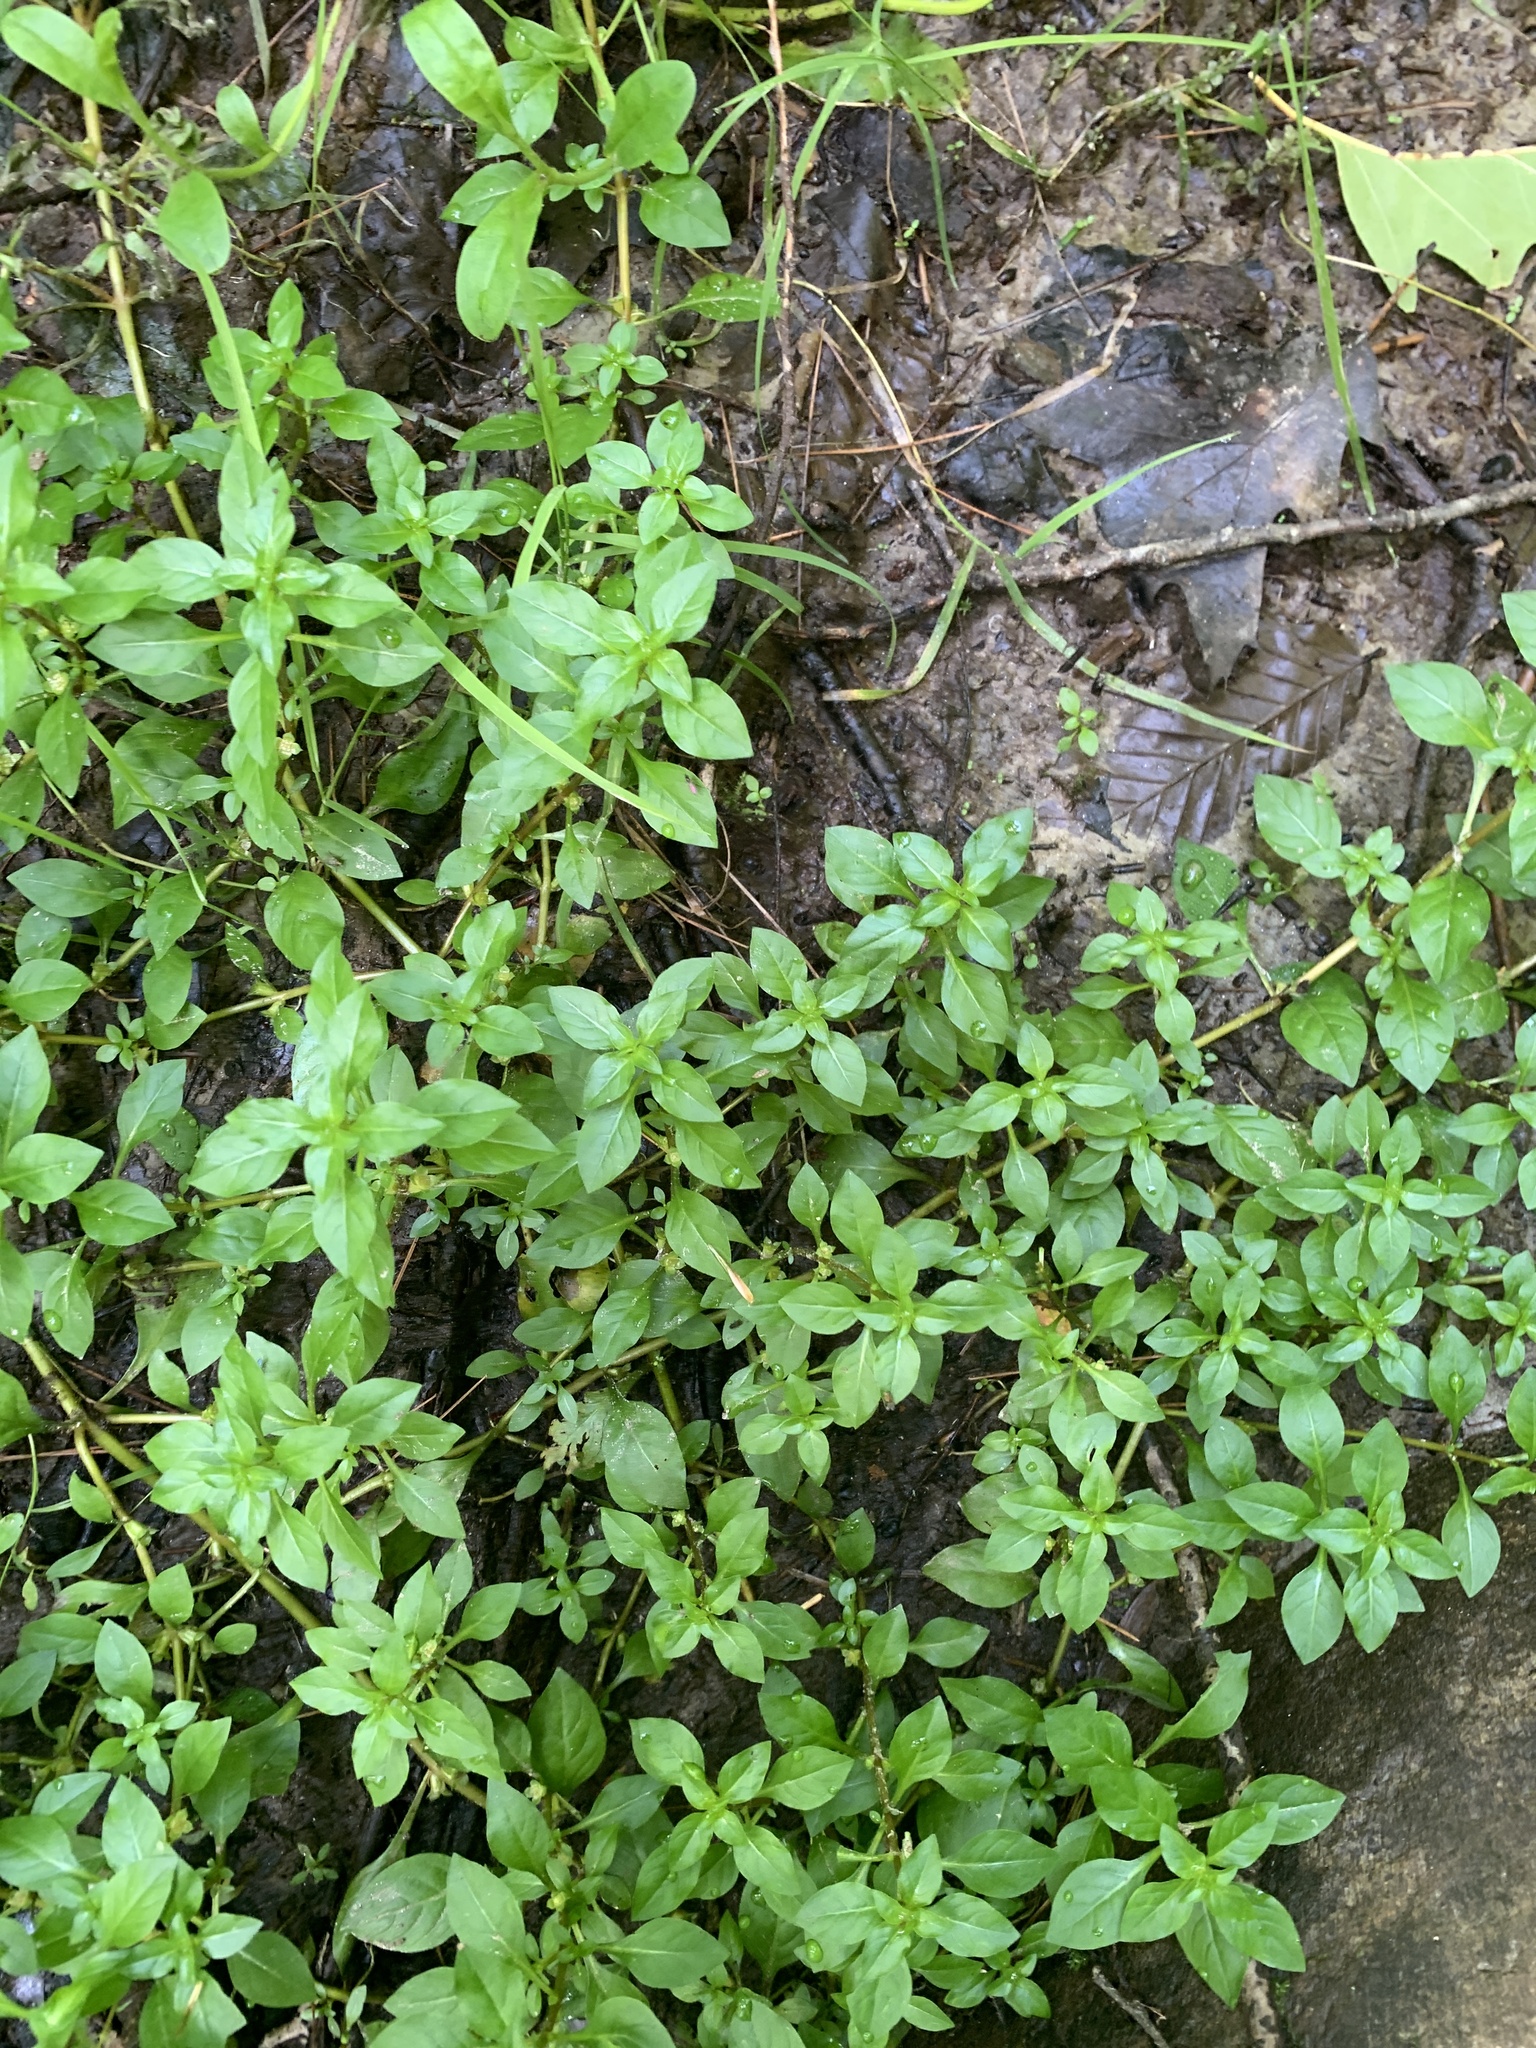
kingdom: Plantae
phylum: Tracheophyta
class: Magnoliopsida
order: Myrtales
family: Onagraceae
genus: Ludwigia
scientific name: Ludwigia palustris
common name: Hampshire-purslane
